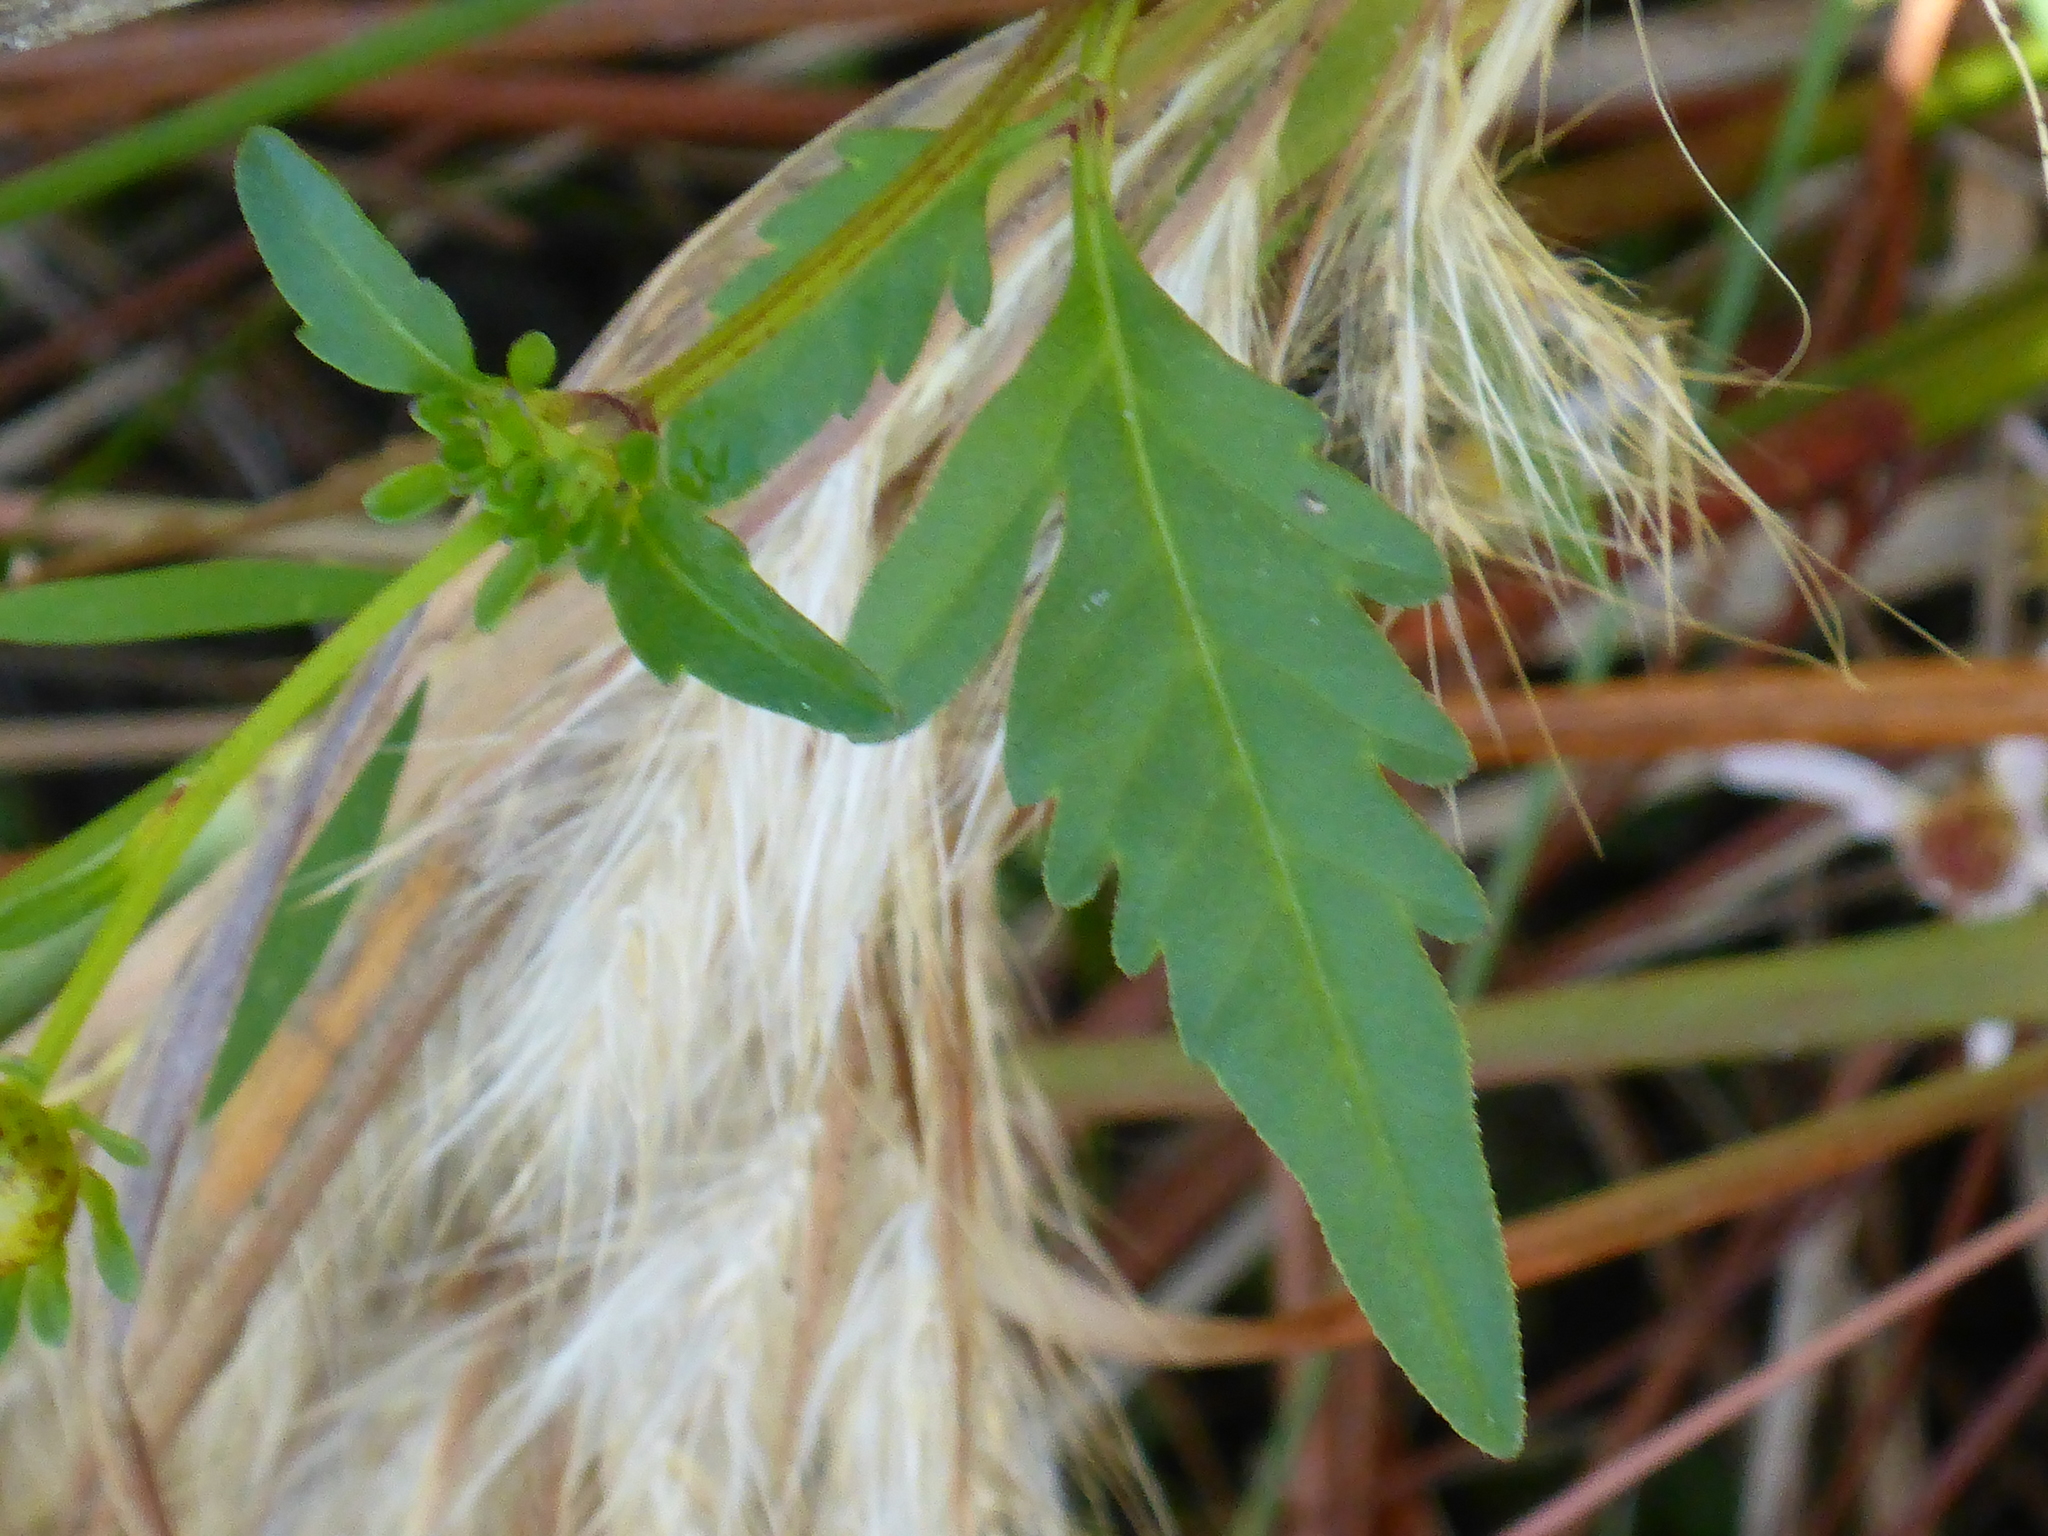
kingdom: Plantae
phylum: Tracheophyta
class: Magnoliopsida
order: Asterales
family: Asteraceae
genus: Bidens
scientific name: Bidens mitis
